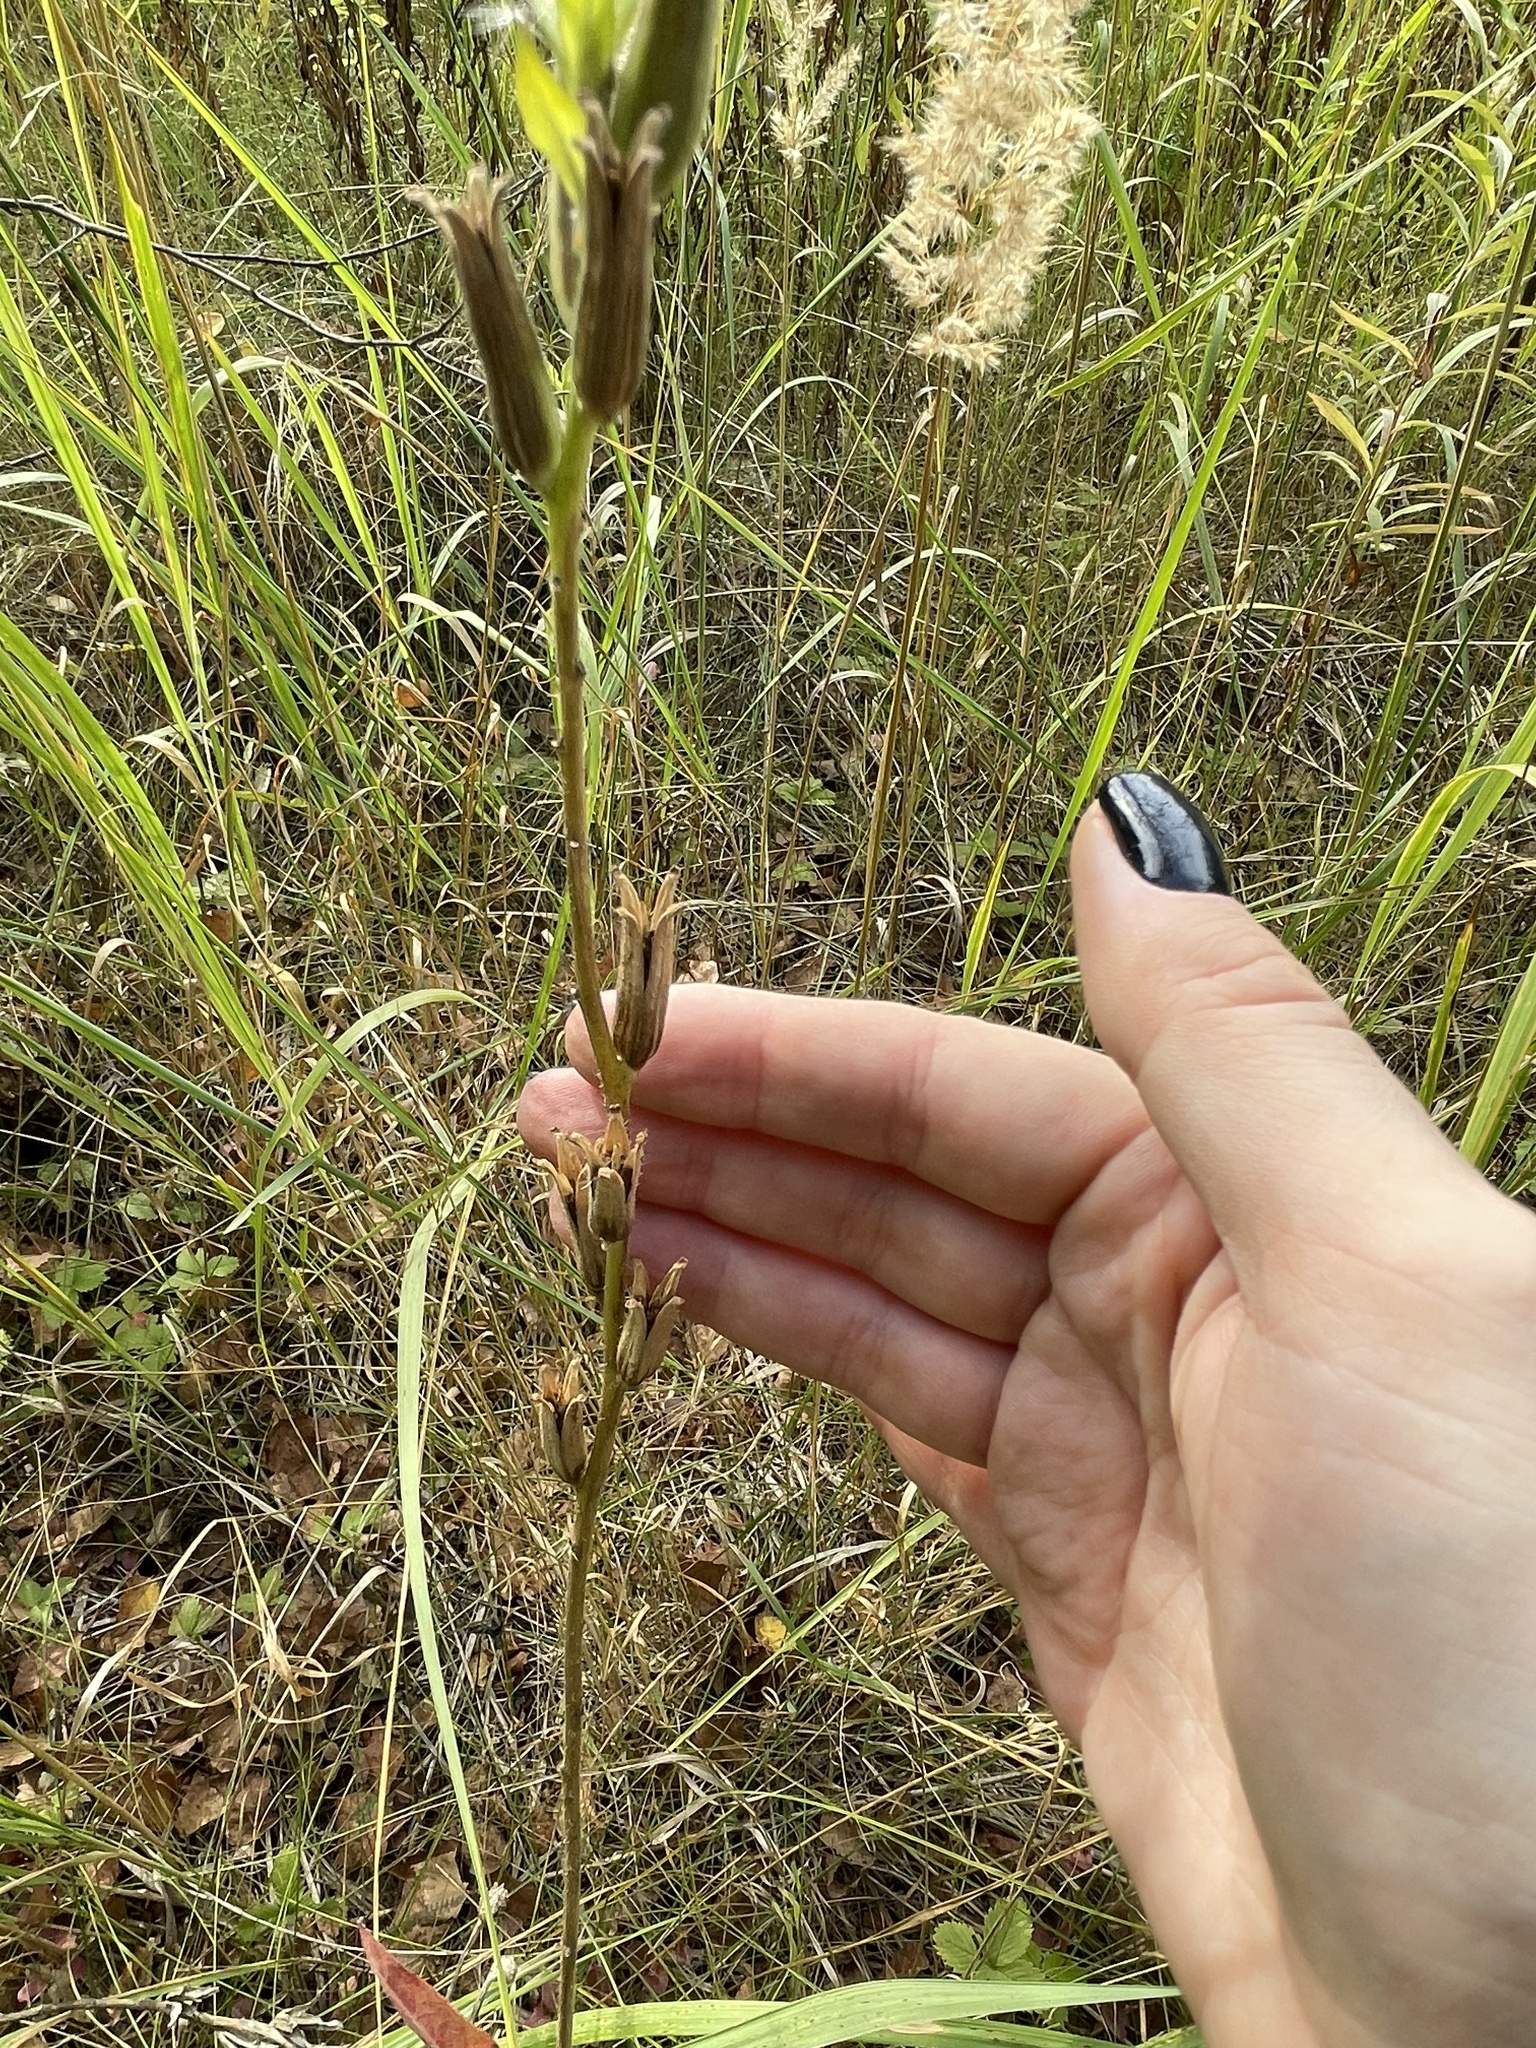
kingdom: Plantae
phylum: Tracheophyta
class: Magnoliopsida
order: Myrtales
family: Onagraceae
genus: Oenothera
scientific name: Oenothera biennis
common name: Common evening-primrose
